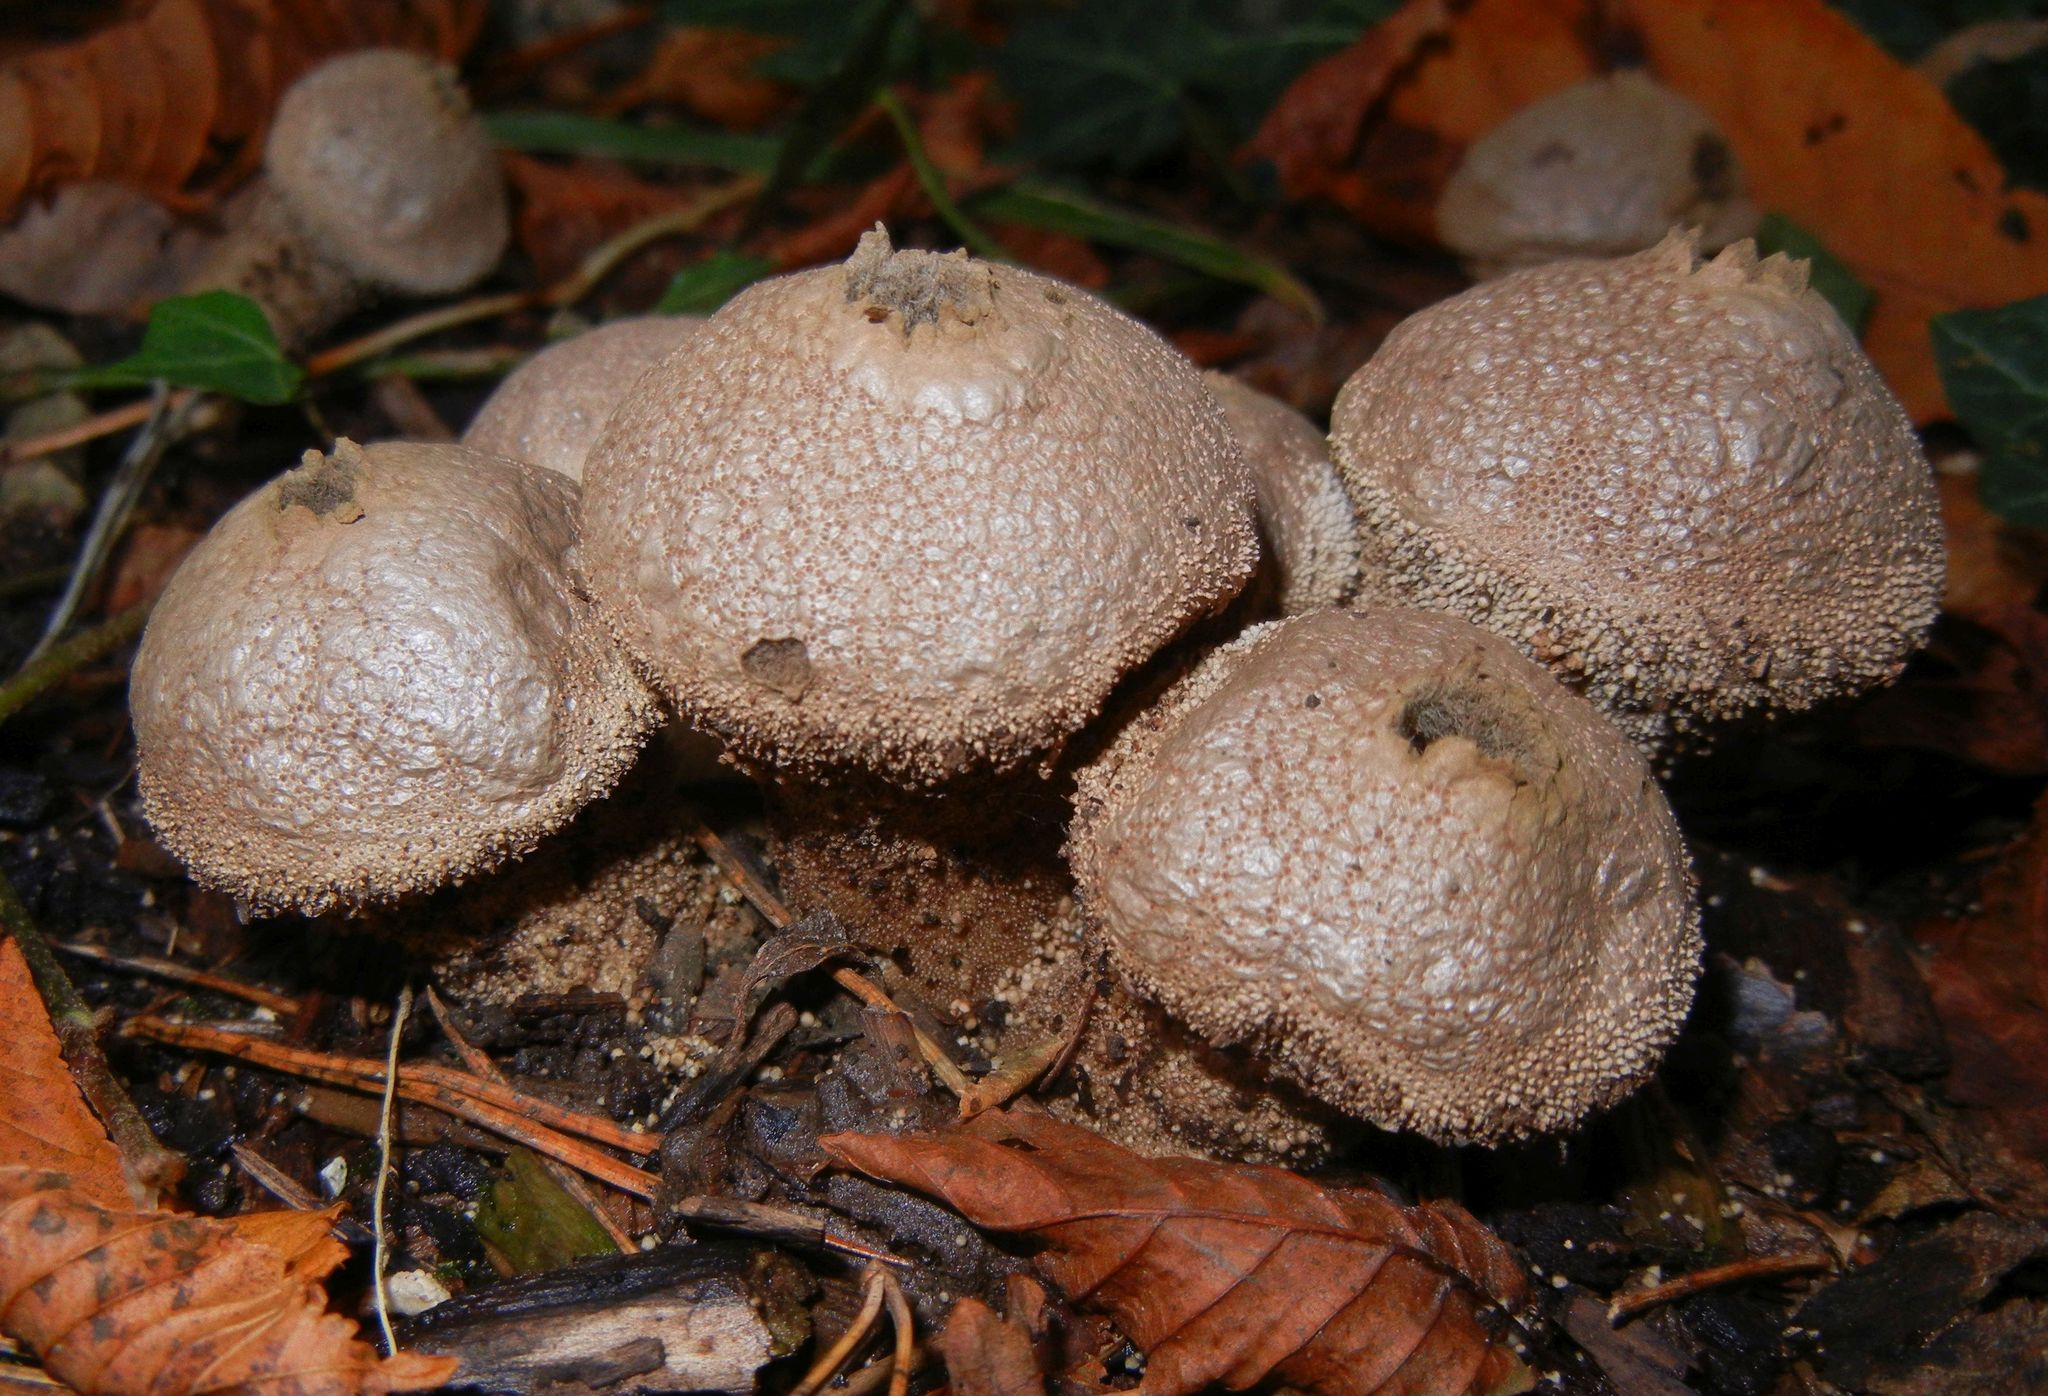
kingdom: Fungi
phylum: Basidiomycota
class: Agaricomycetes
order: Agaricales
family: Lycoperdaceae
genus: Lycoperdon
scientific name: Lycoperdon perlatum
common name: Common puffball
